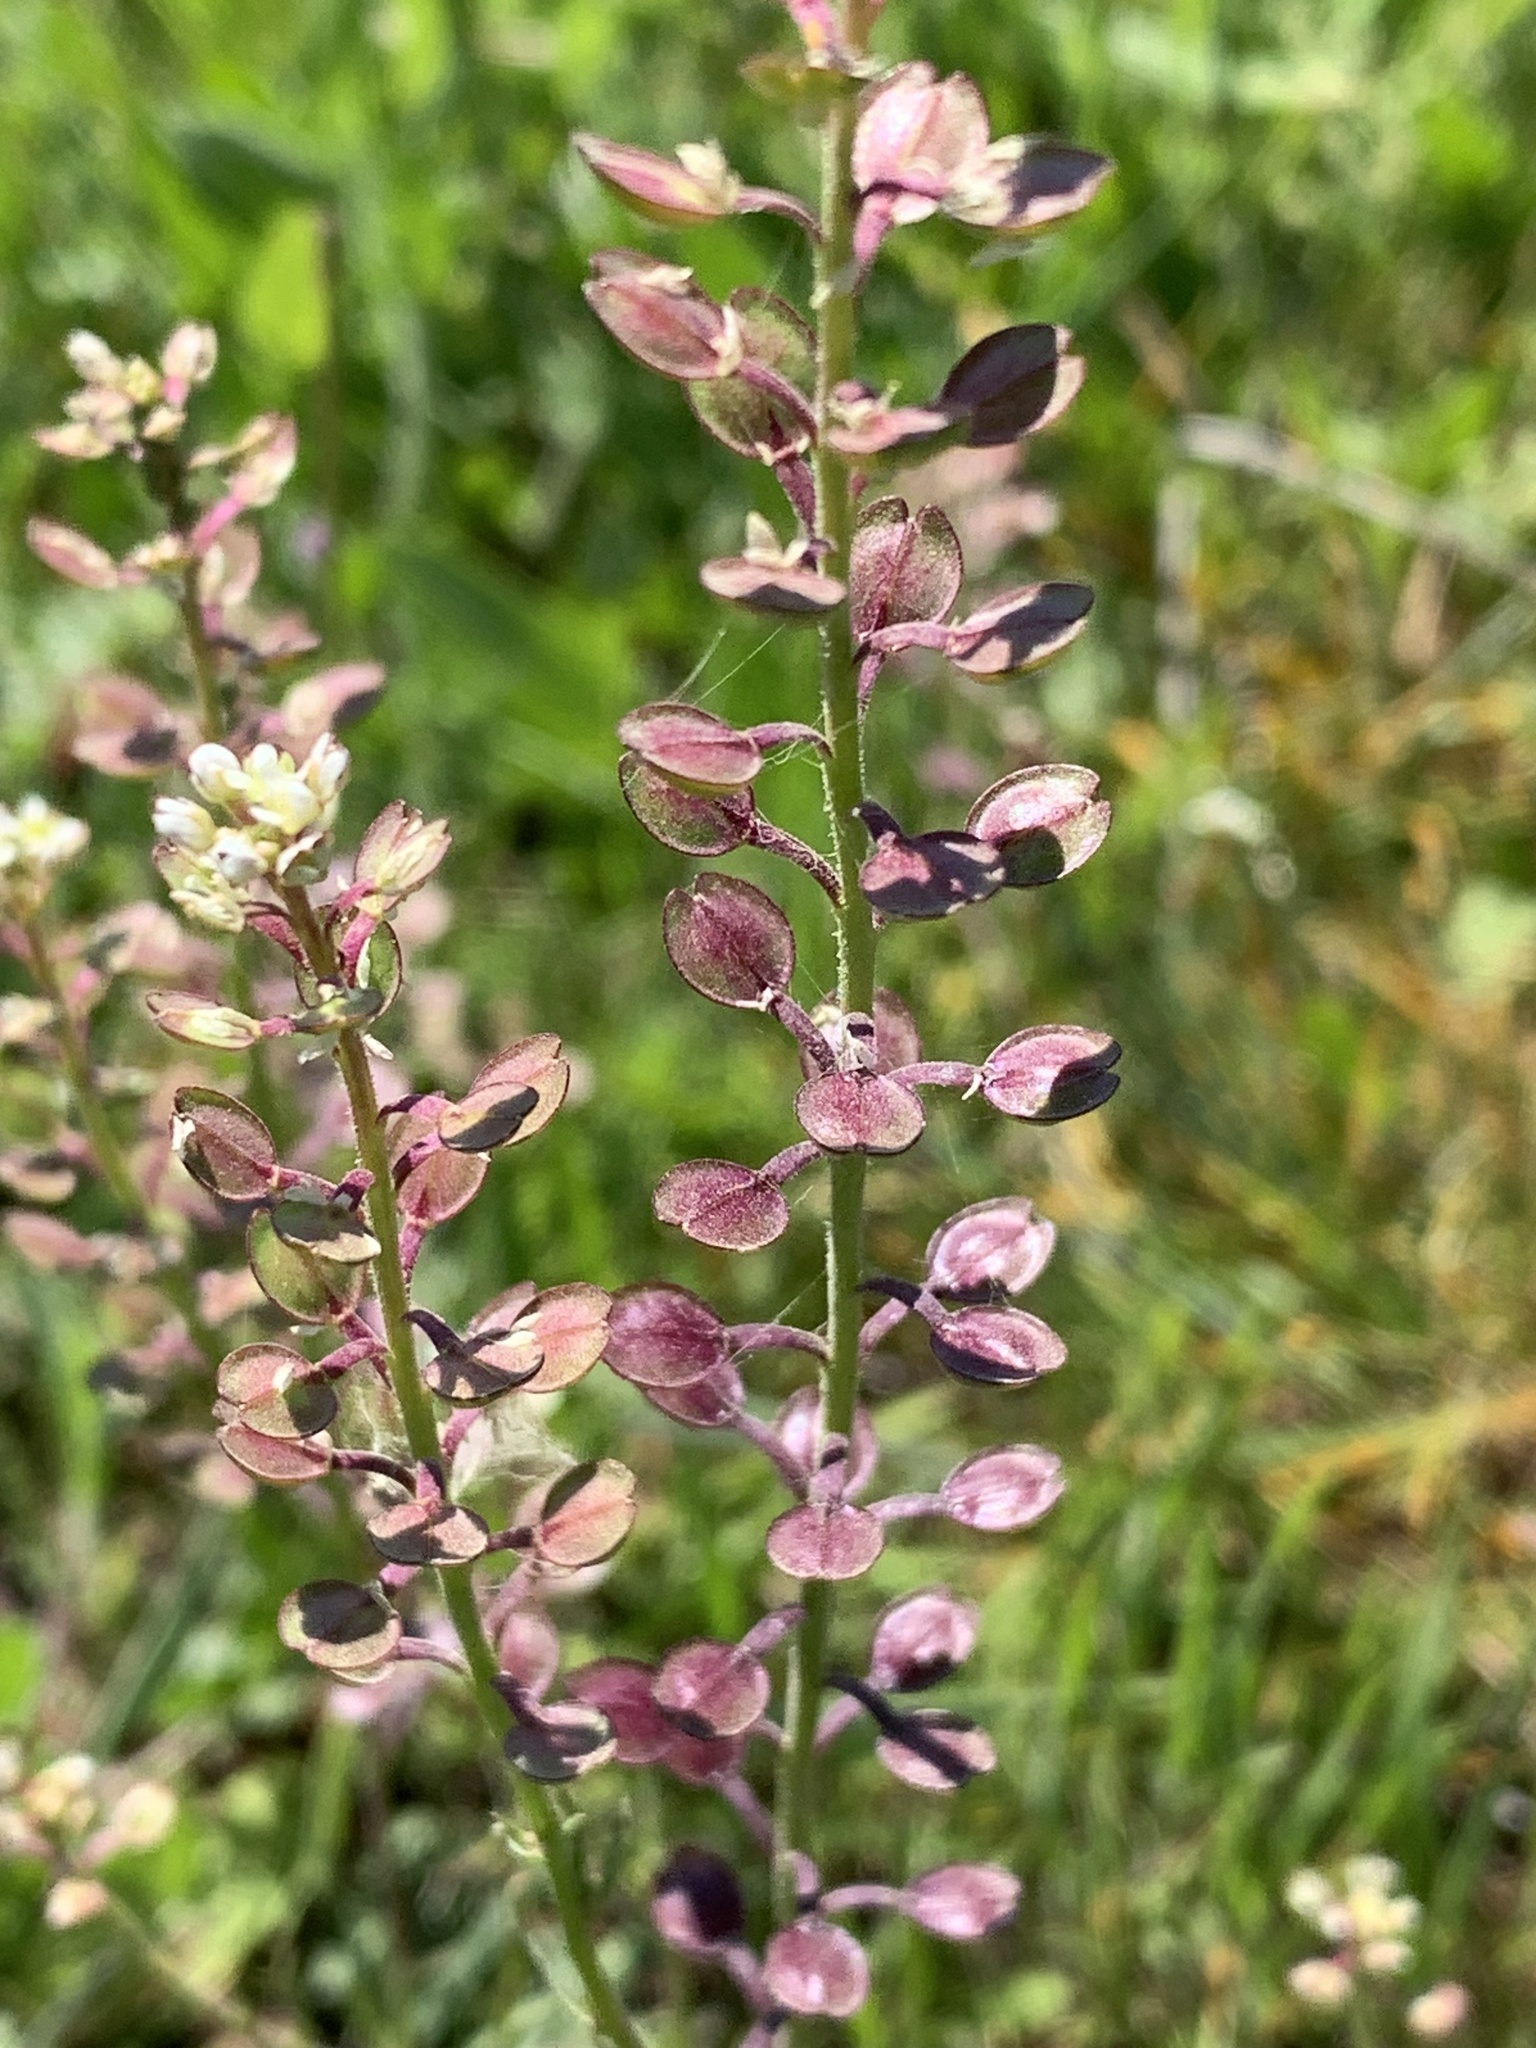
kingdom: Plantae
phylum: Tracheophyta
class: Magnoliopsida
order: Brassicales
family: Brassicaceae
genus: Lepidium
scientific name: Lepidium nitidum
